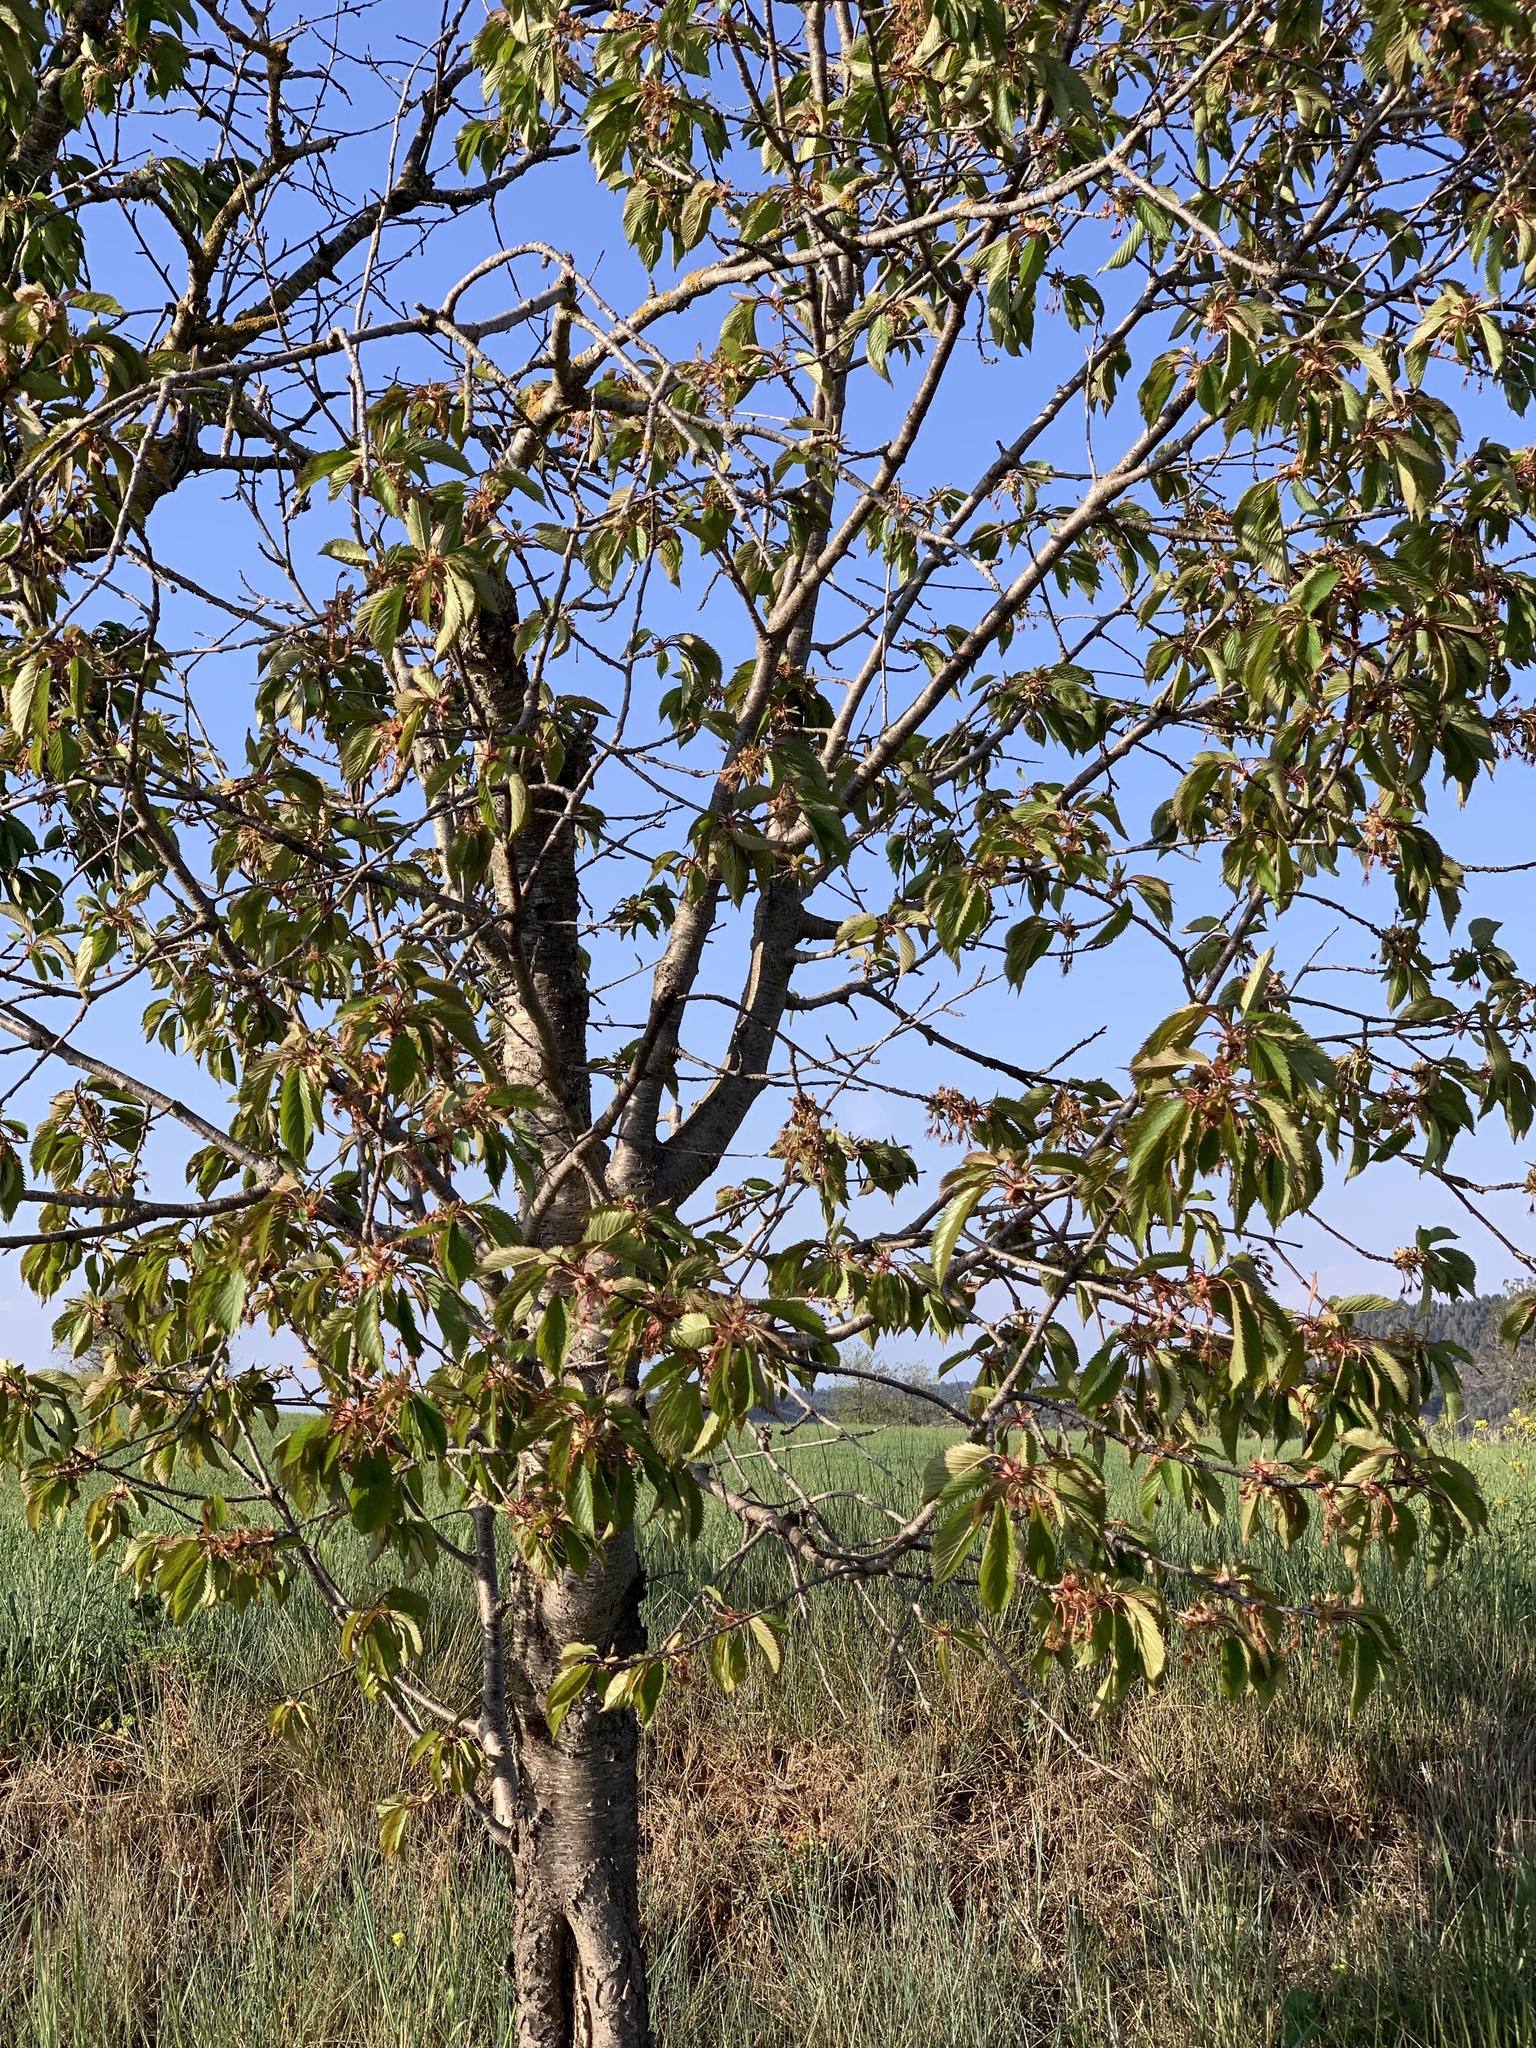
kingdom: Plantae
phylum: Tracheophyta
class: Magnoliopsida
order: Rosales
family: Rosaceae
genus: Prunus
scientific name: Prunus avium
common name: Sweet cherry
